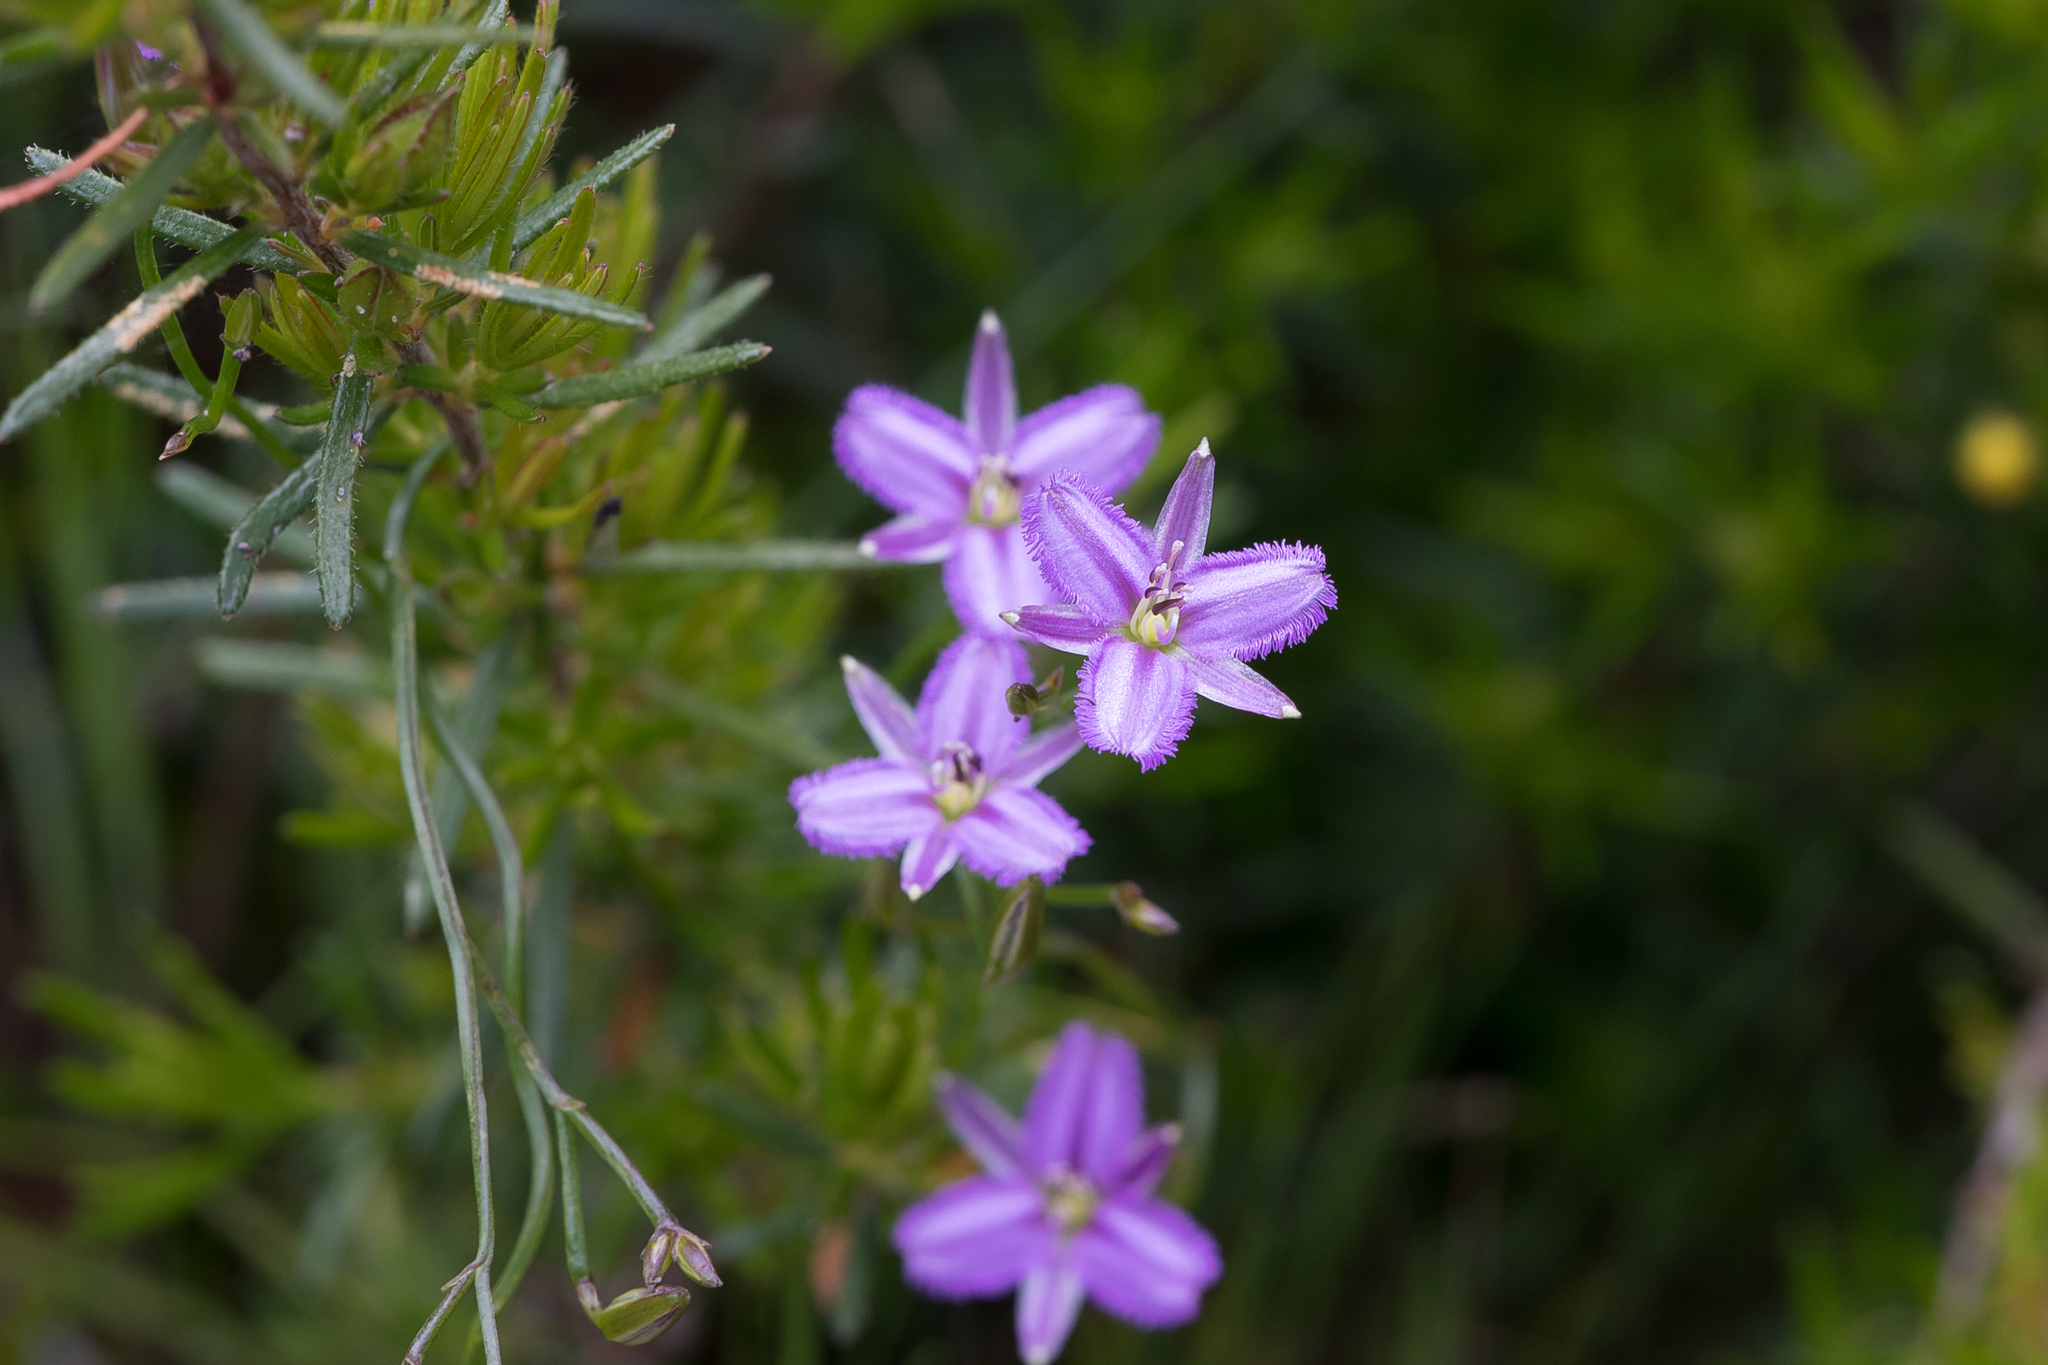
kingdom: Plantae
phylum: Tracheophyta
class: Liliopsida
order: Asparagales
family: Asparagaceae
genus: Thysanotus
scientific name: Thysanotus patersonii
